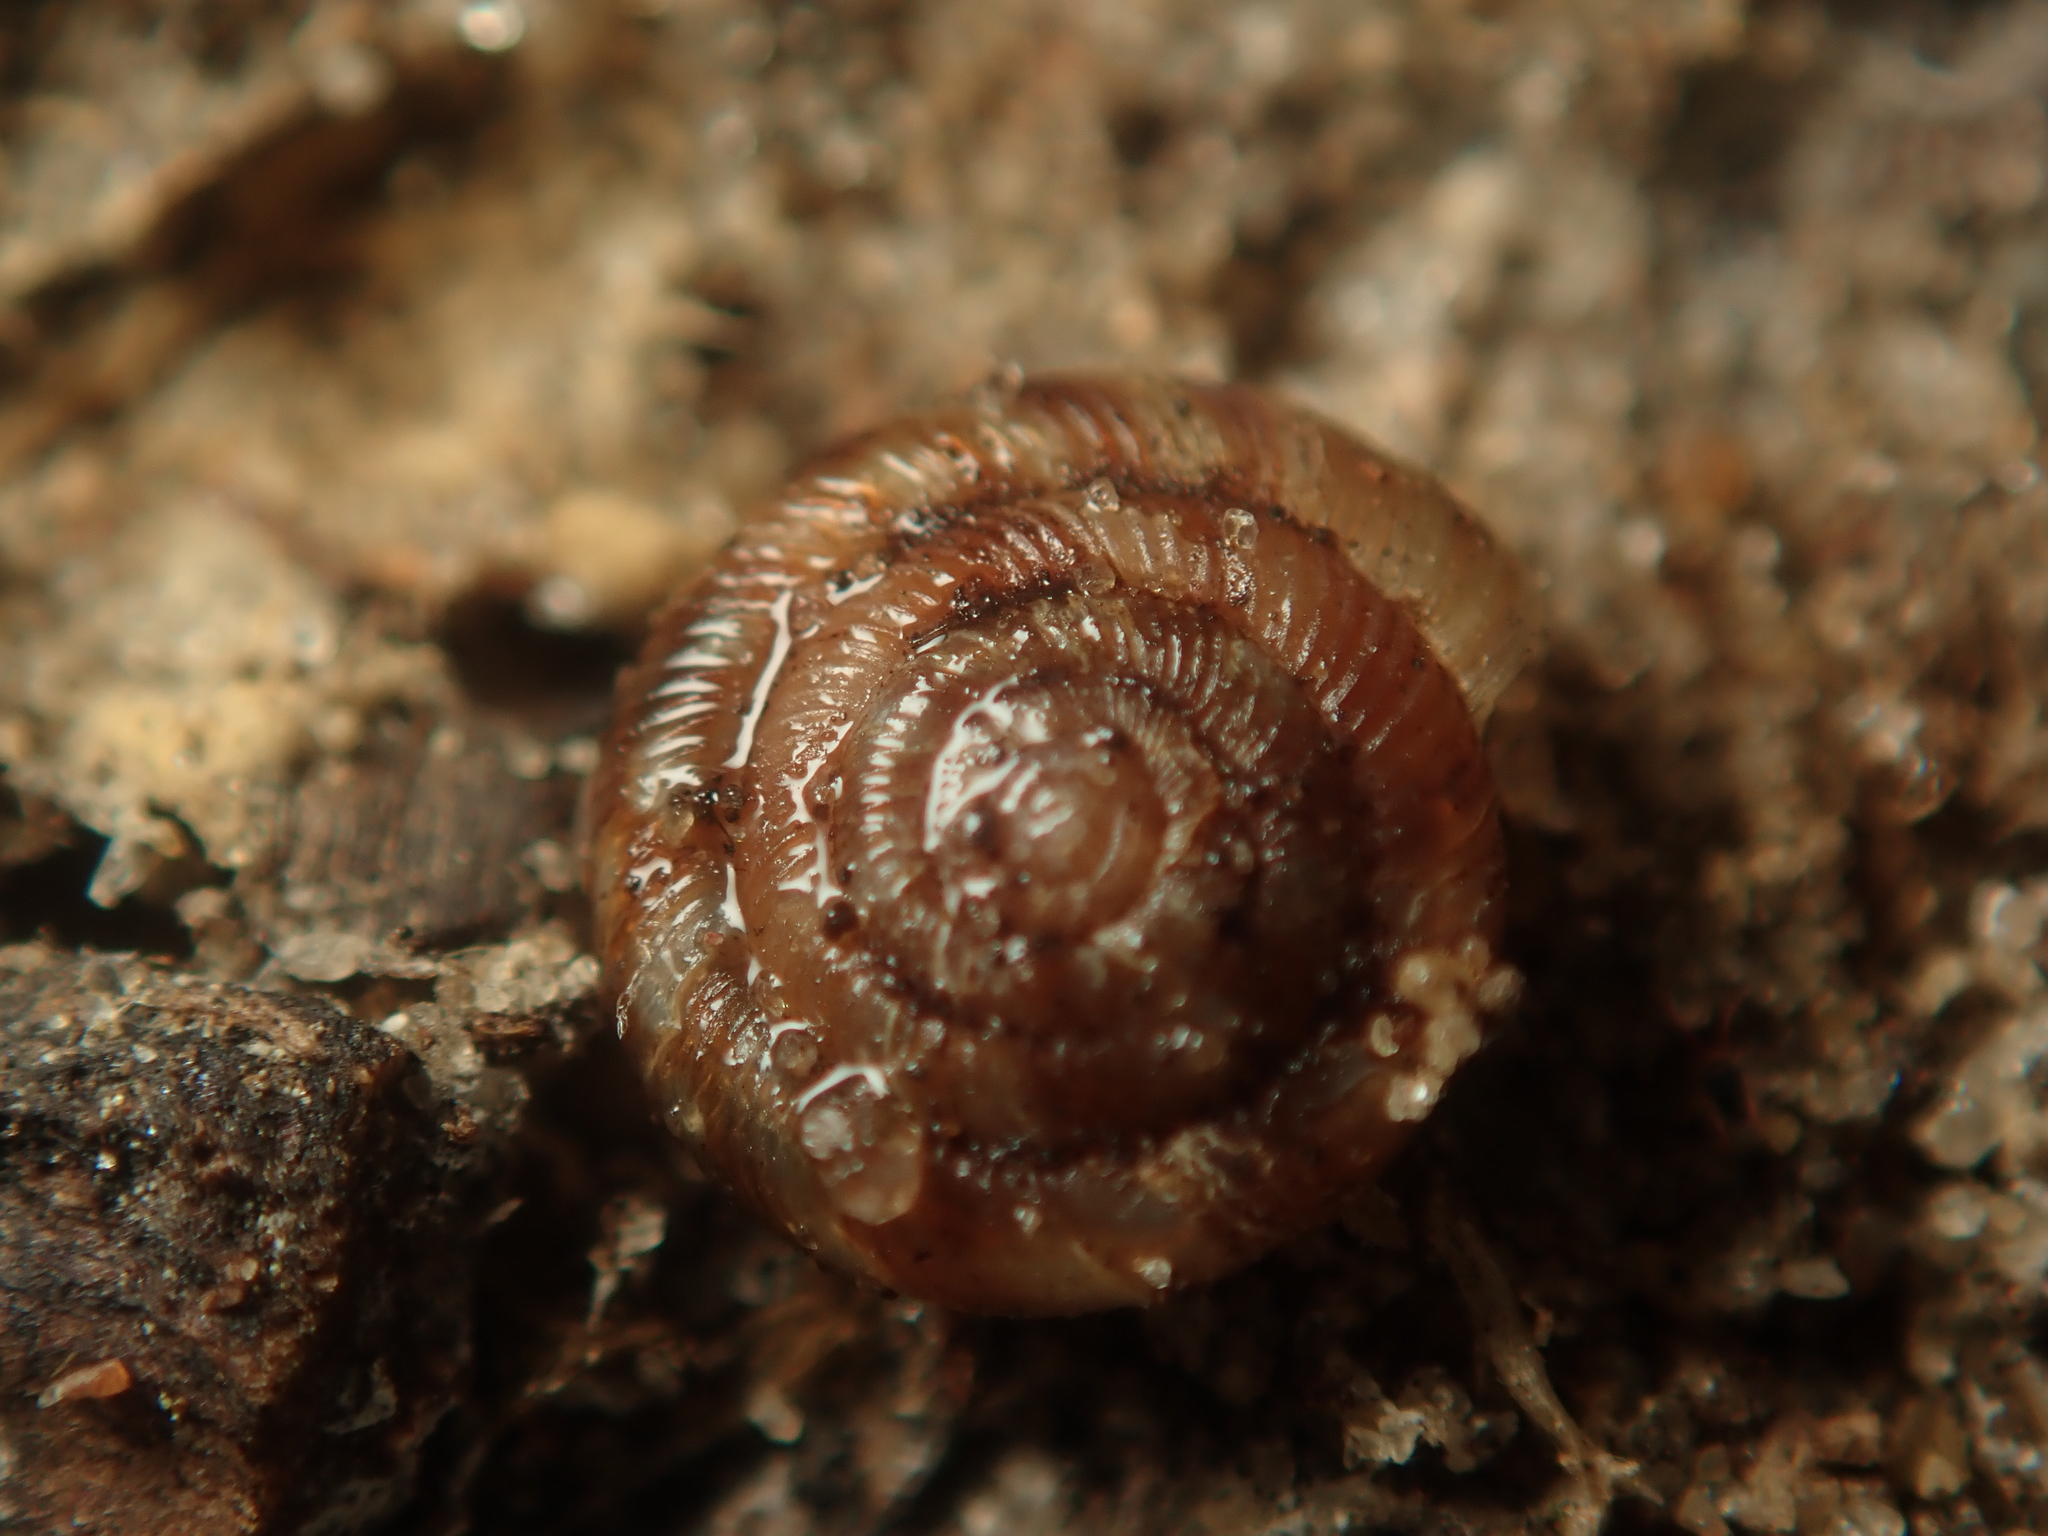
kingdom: Animalia
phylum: Mollusca
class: Gastropoda
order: Stylommatophora
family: Discidae
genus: Discus
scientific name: Discus rotundatus
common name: Rounded snail
